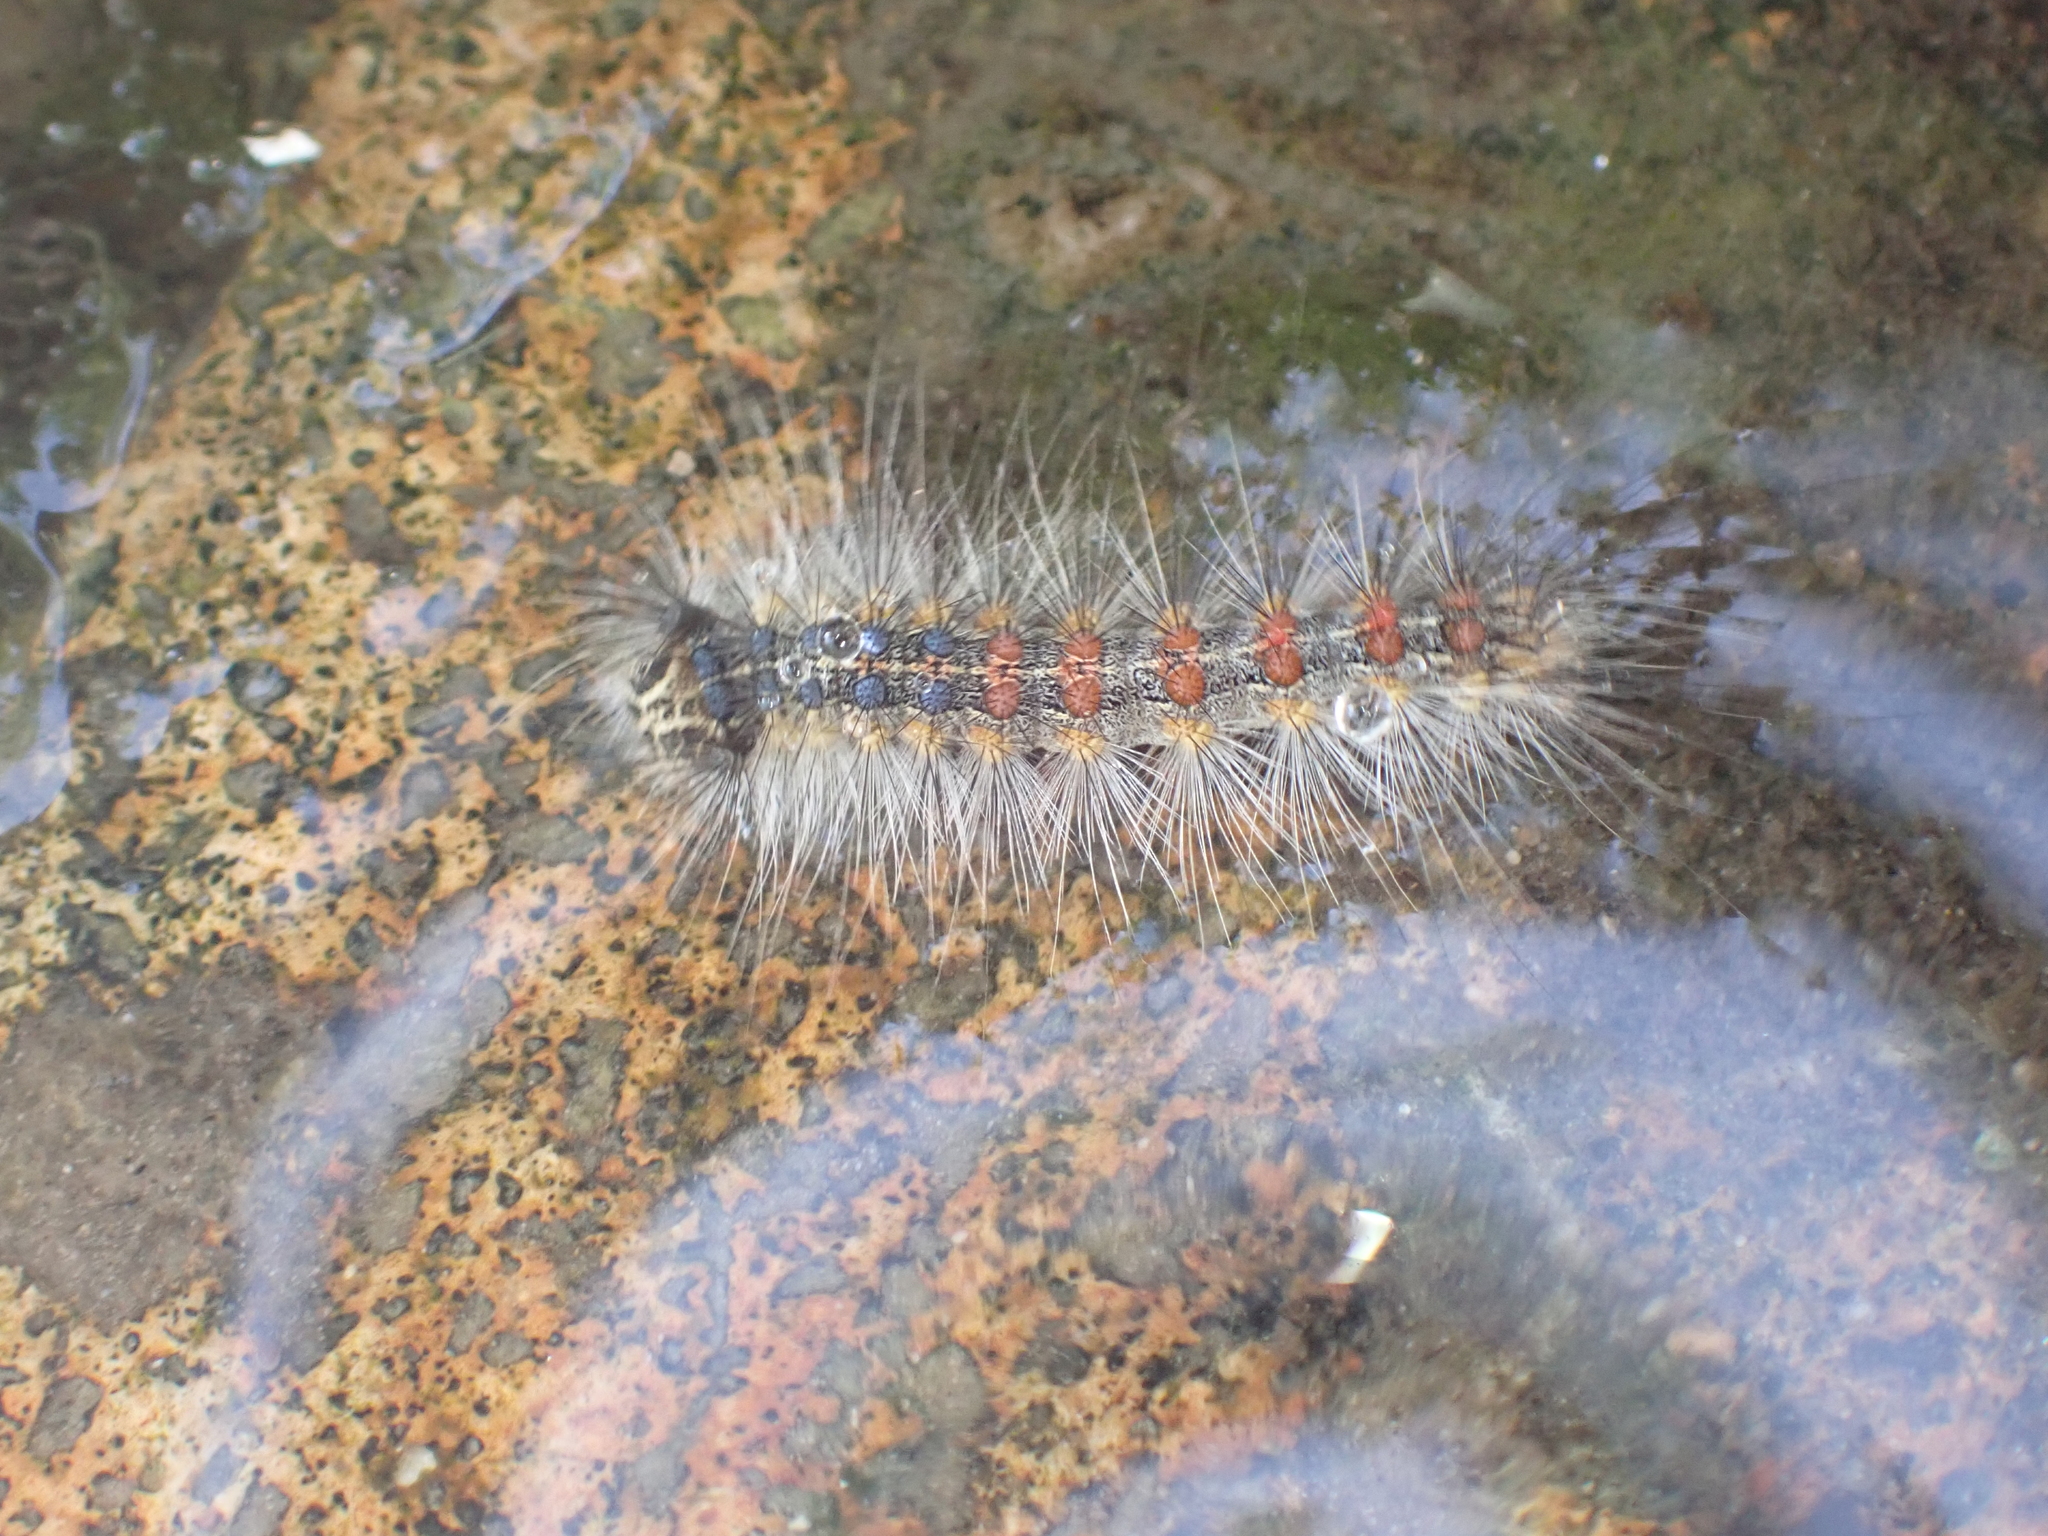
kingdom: Animalia
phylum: Arthropoda
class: Insecta
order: Lepidoptera
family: Erebidae
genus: Lymantria
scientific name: Lymantria dispar
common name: Gypsy moth
